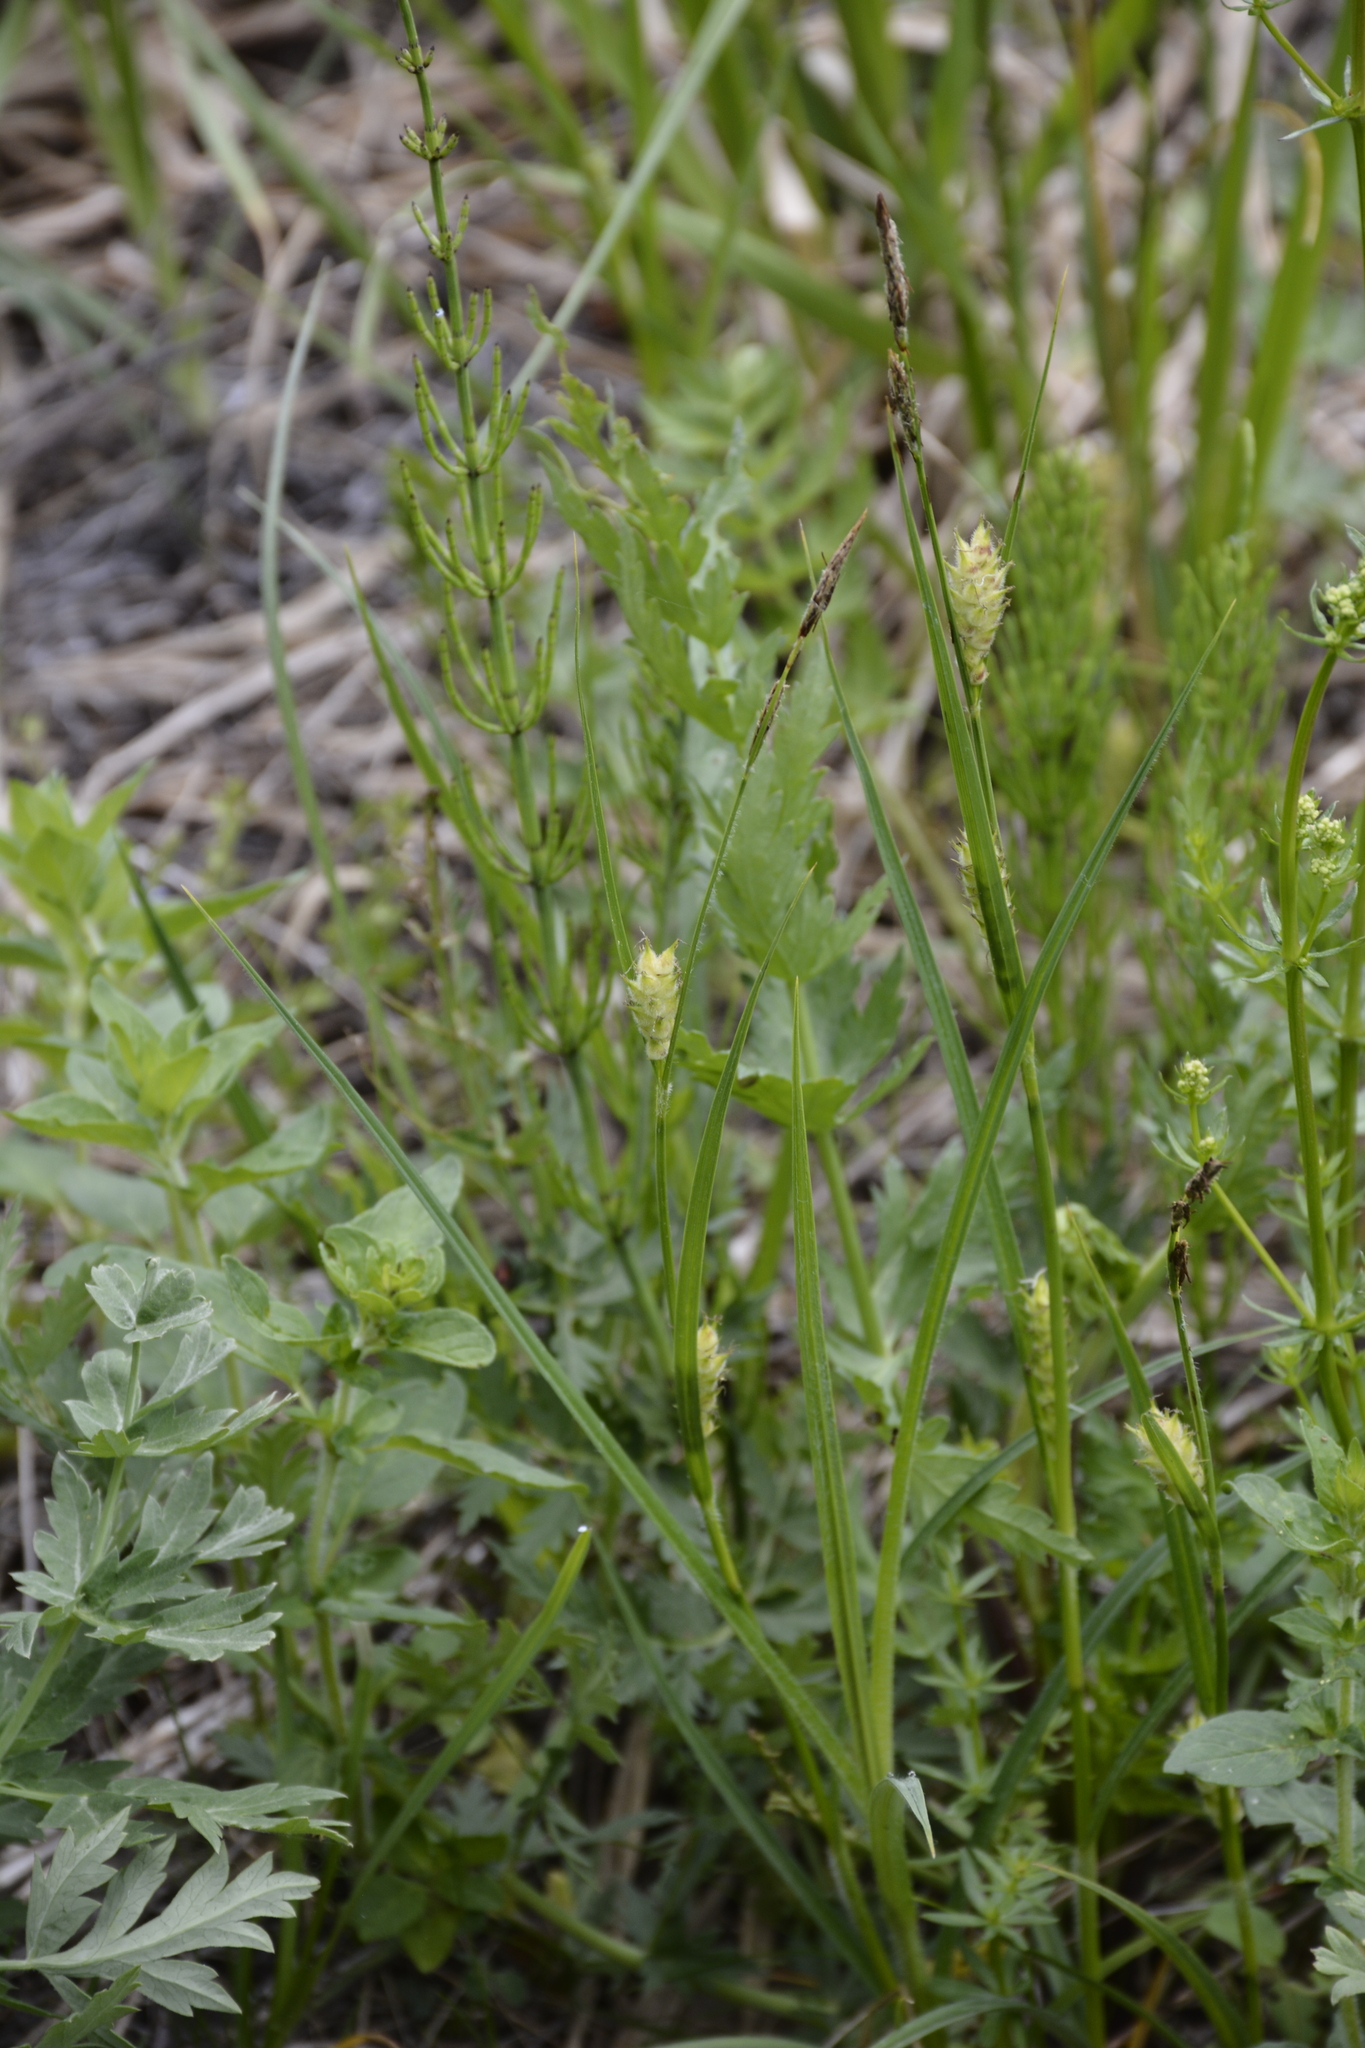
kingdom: Plantae
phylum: Tracheophyta
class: Liliopsida
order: Poales
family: Cyperaceae
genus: Carex
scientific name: Carex hirta
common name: Hairy sedge
